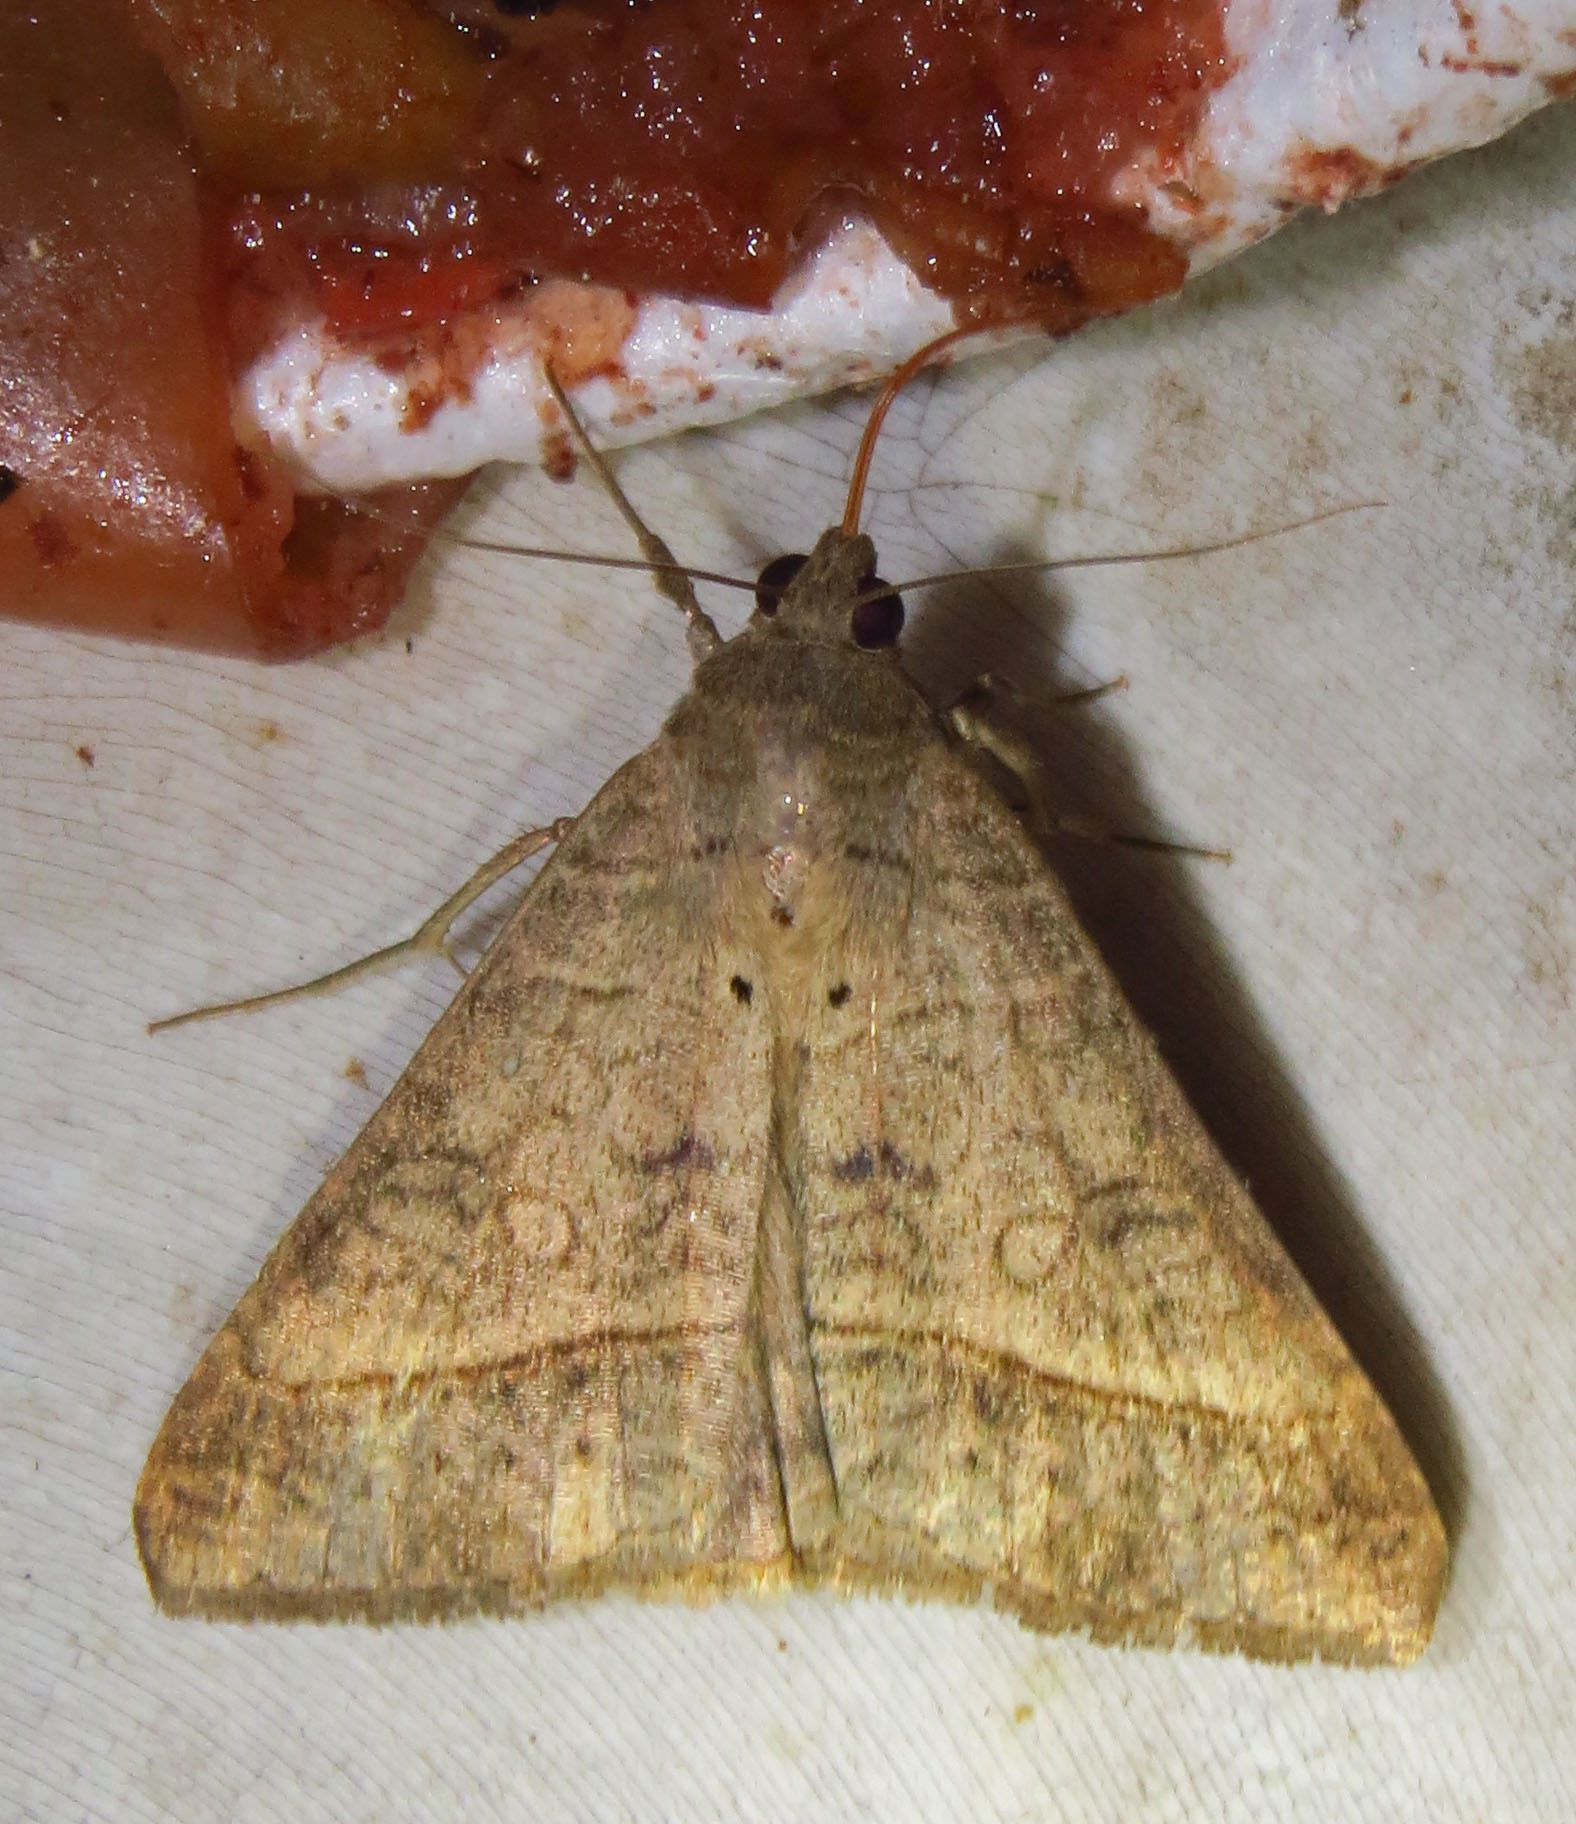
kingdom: Animalia
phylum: Arthropoda
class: Insecta
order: Lepidoptera
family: Erebidae
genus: Mocis
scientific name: Mocis latipes
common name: Striped grass looper
